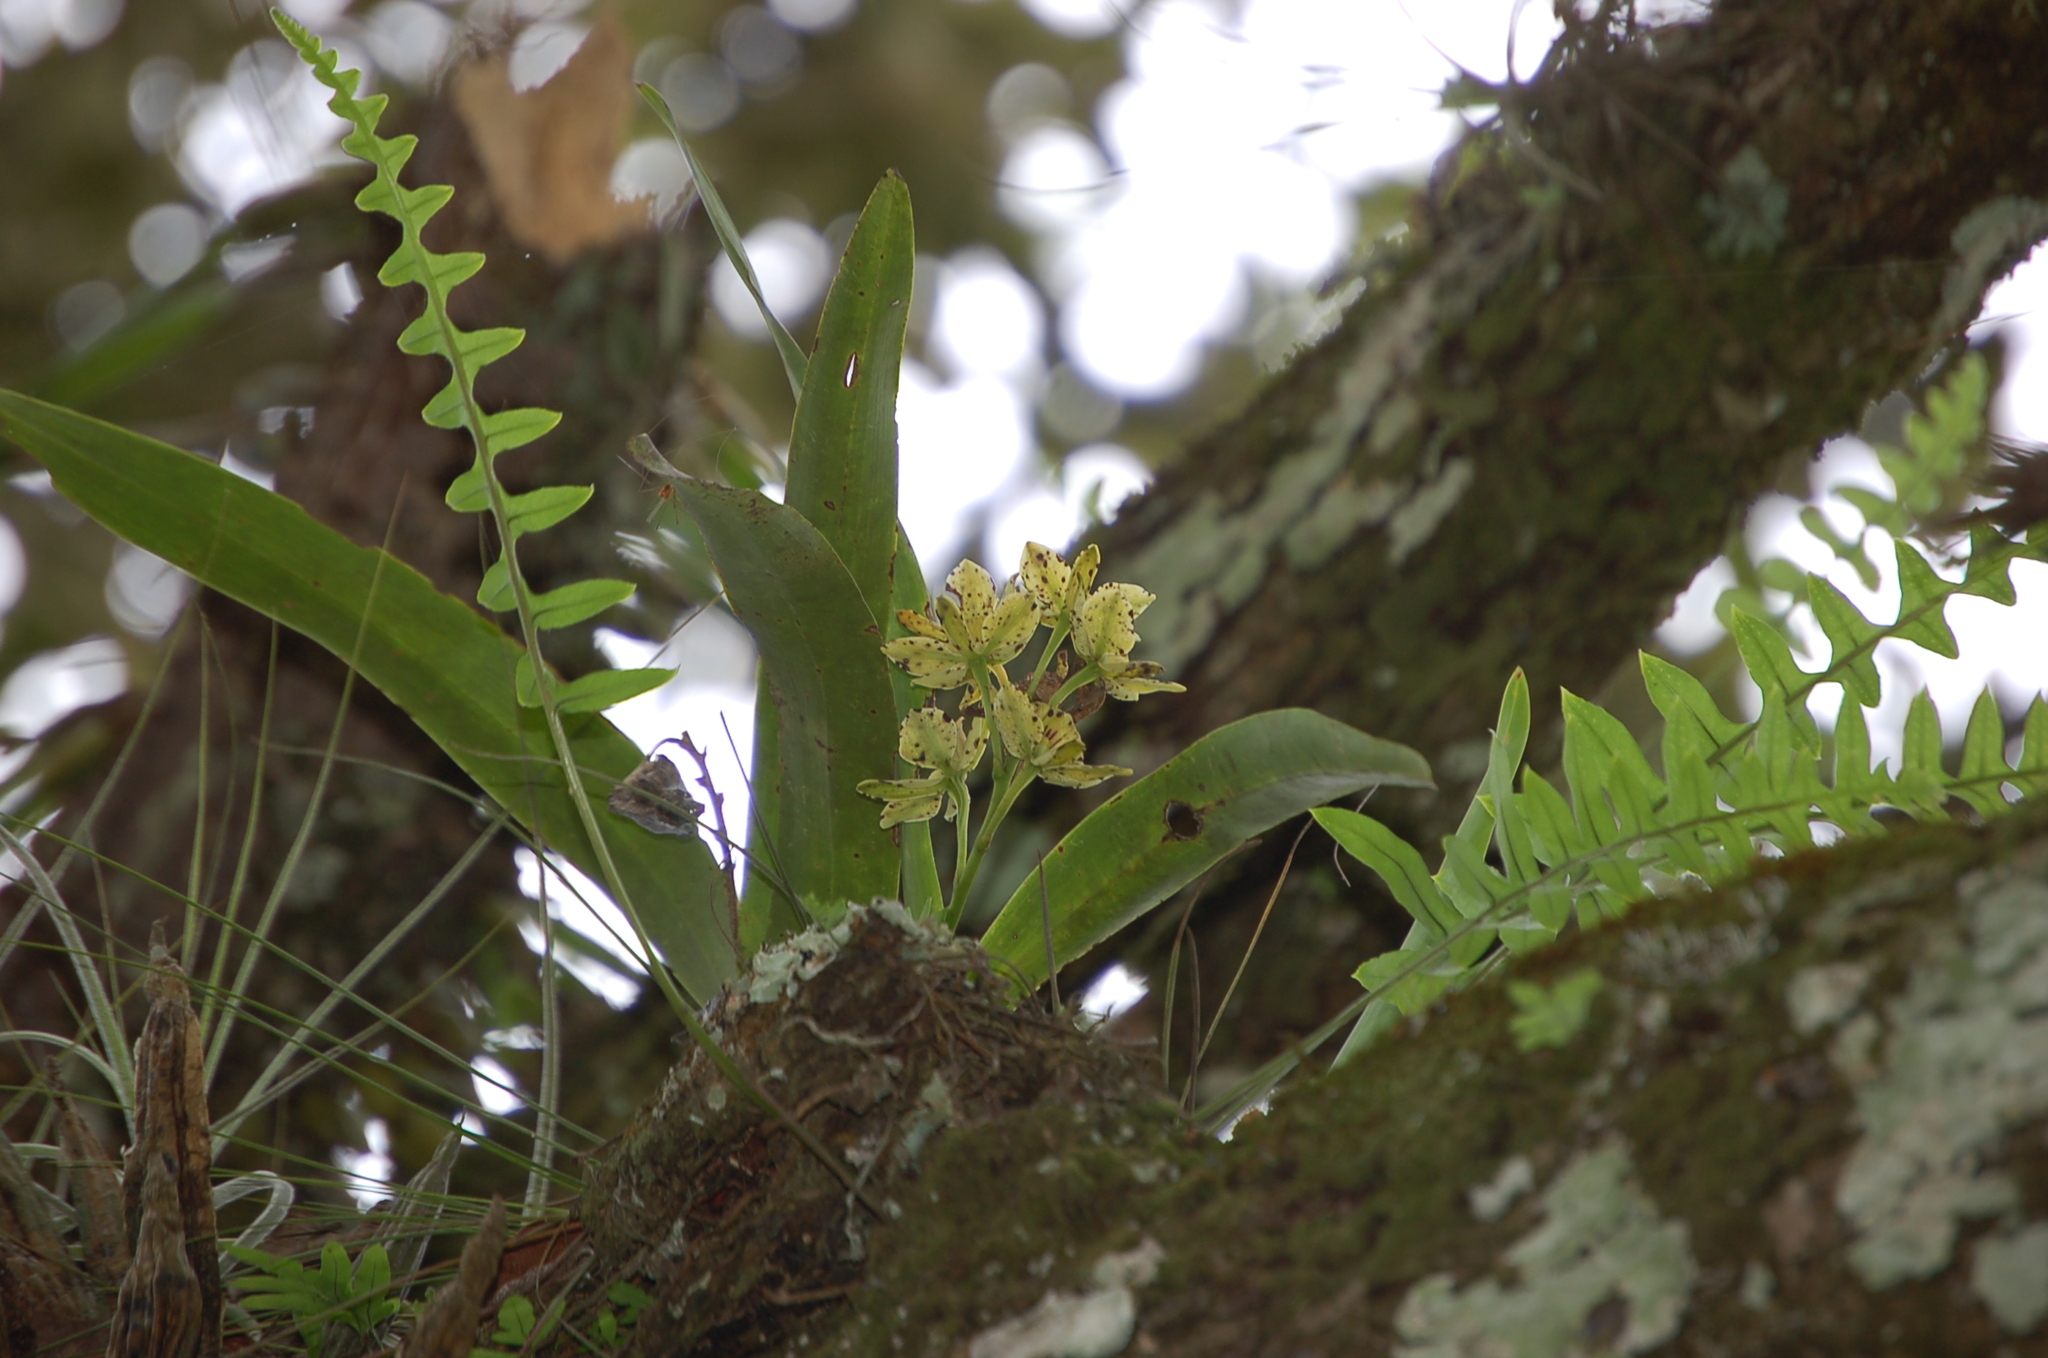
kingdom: Plantae
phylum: Tracheophyta
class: Liliopsida
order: Asparagales
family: Orchidaceae
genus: Prosthechea
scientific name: Prosthechea radiata
